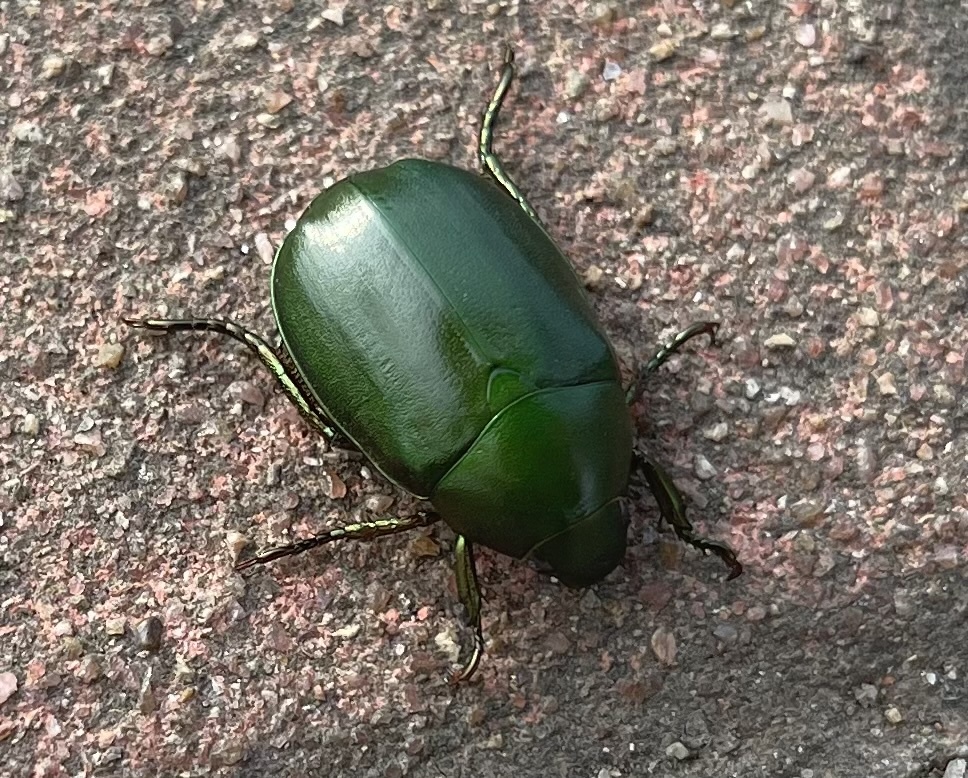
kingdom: Animalia
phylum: Arthropoda
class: Insecta
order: Coleoptera
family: Scarabaeidae
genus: Anomala
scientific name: Anomala rubripes
